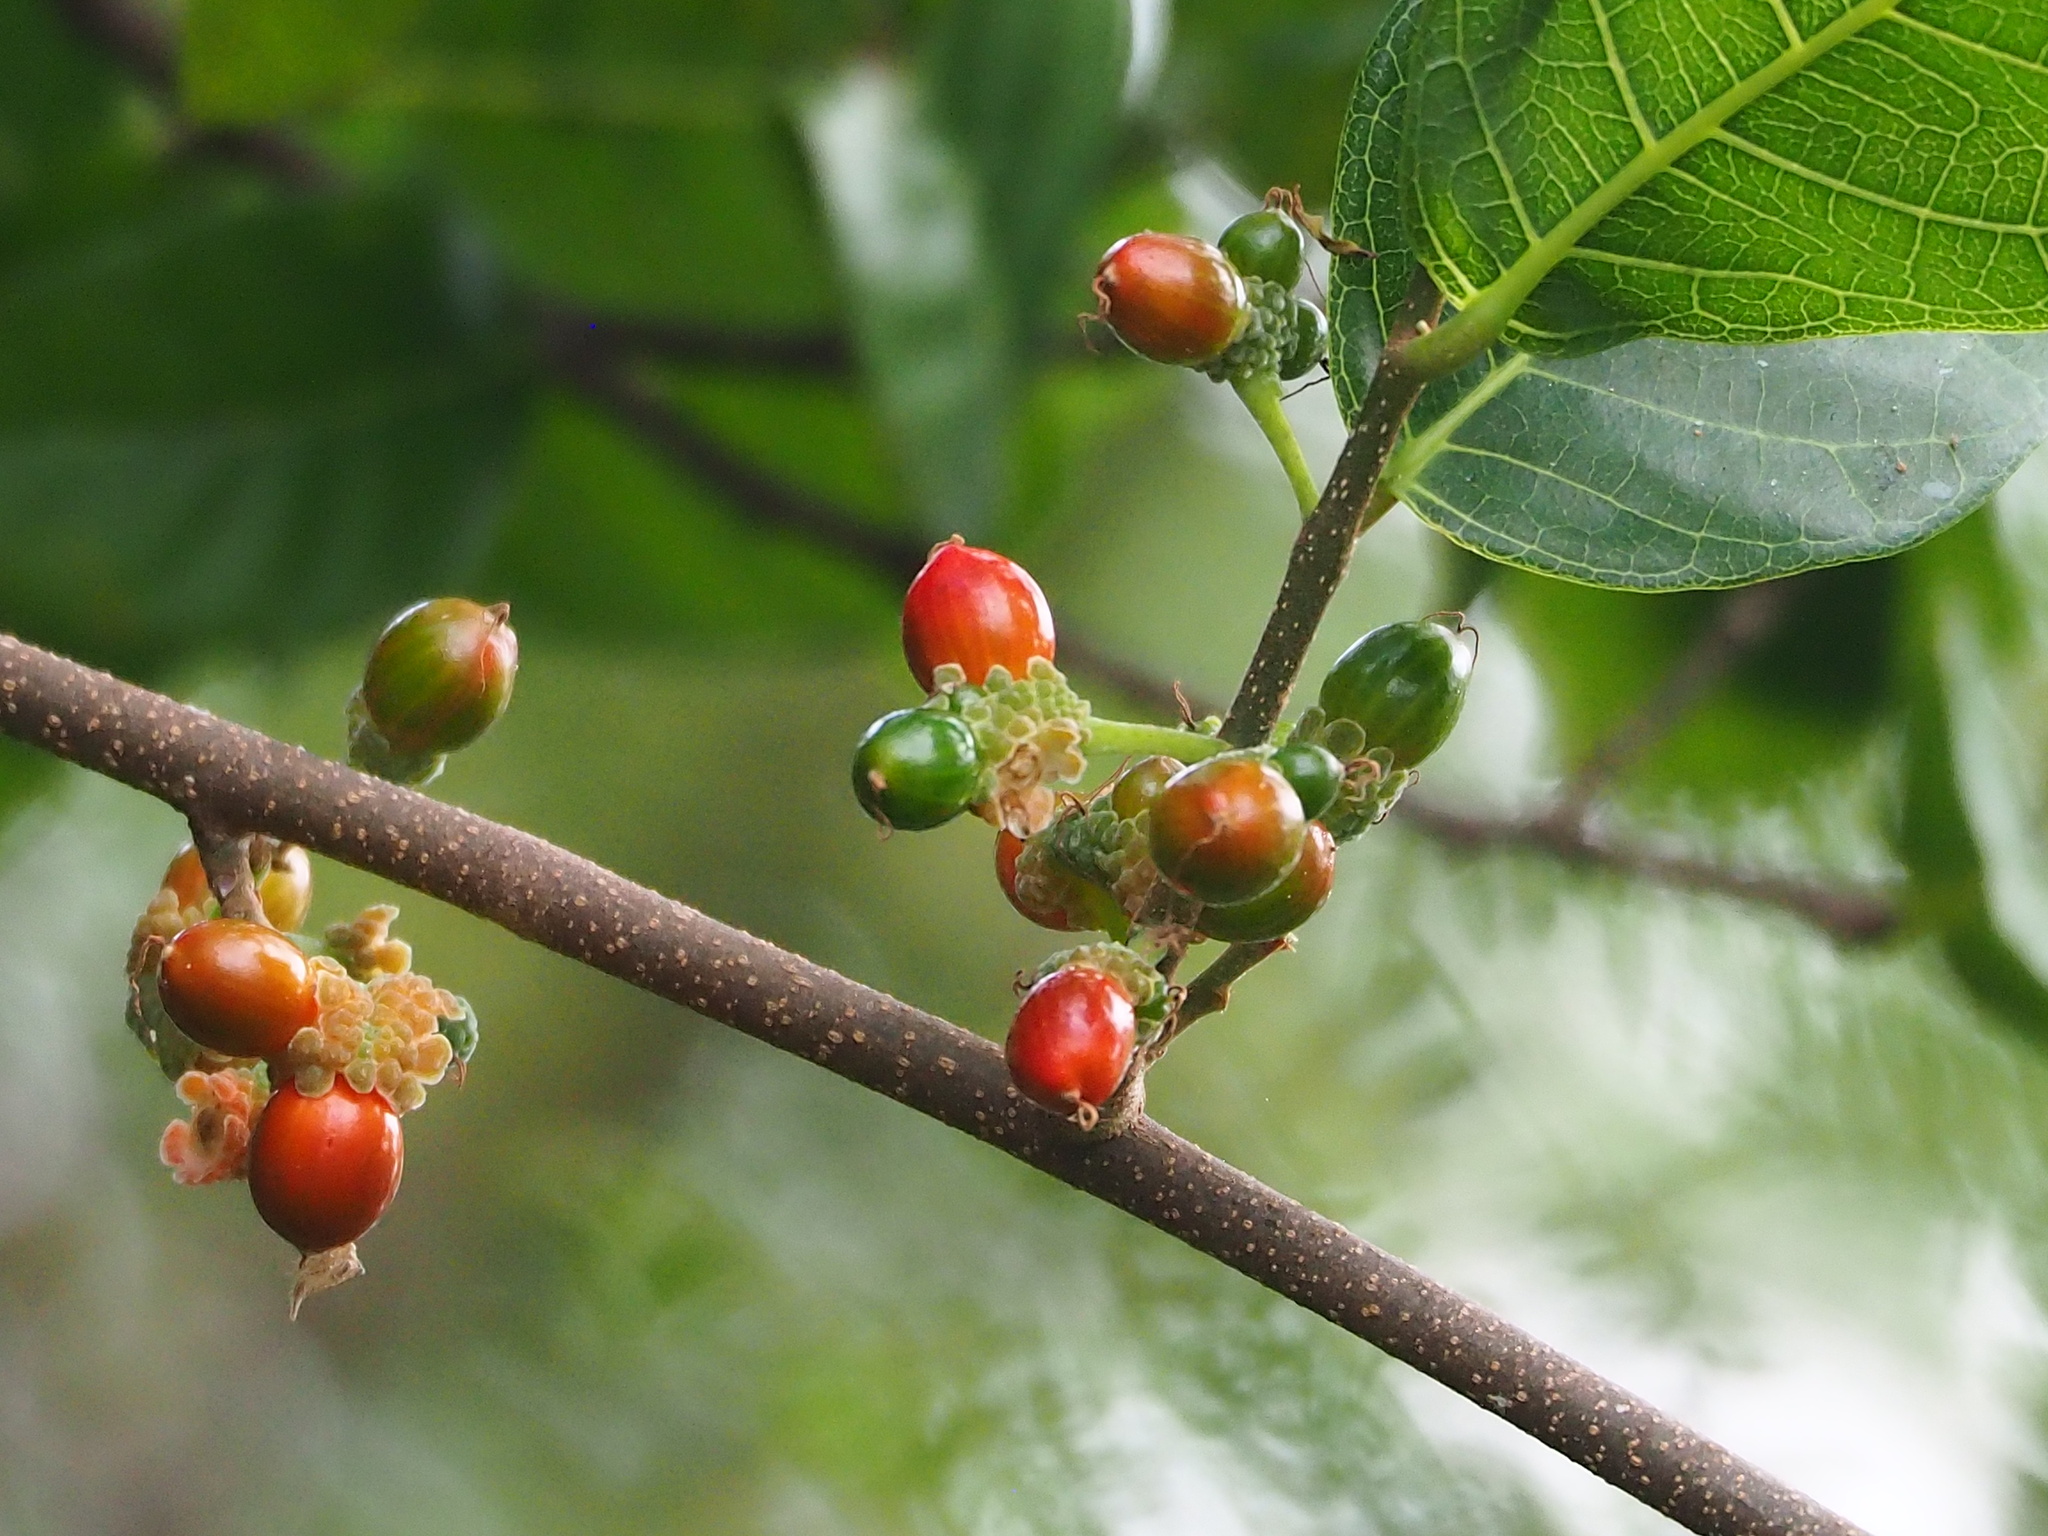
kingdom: Plantae
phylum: Tracheophyta
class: Magnoliopsida
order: Rosales
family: Moraceae
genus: Malaisia
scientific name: Malaisia scandens
